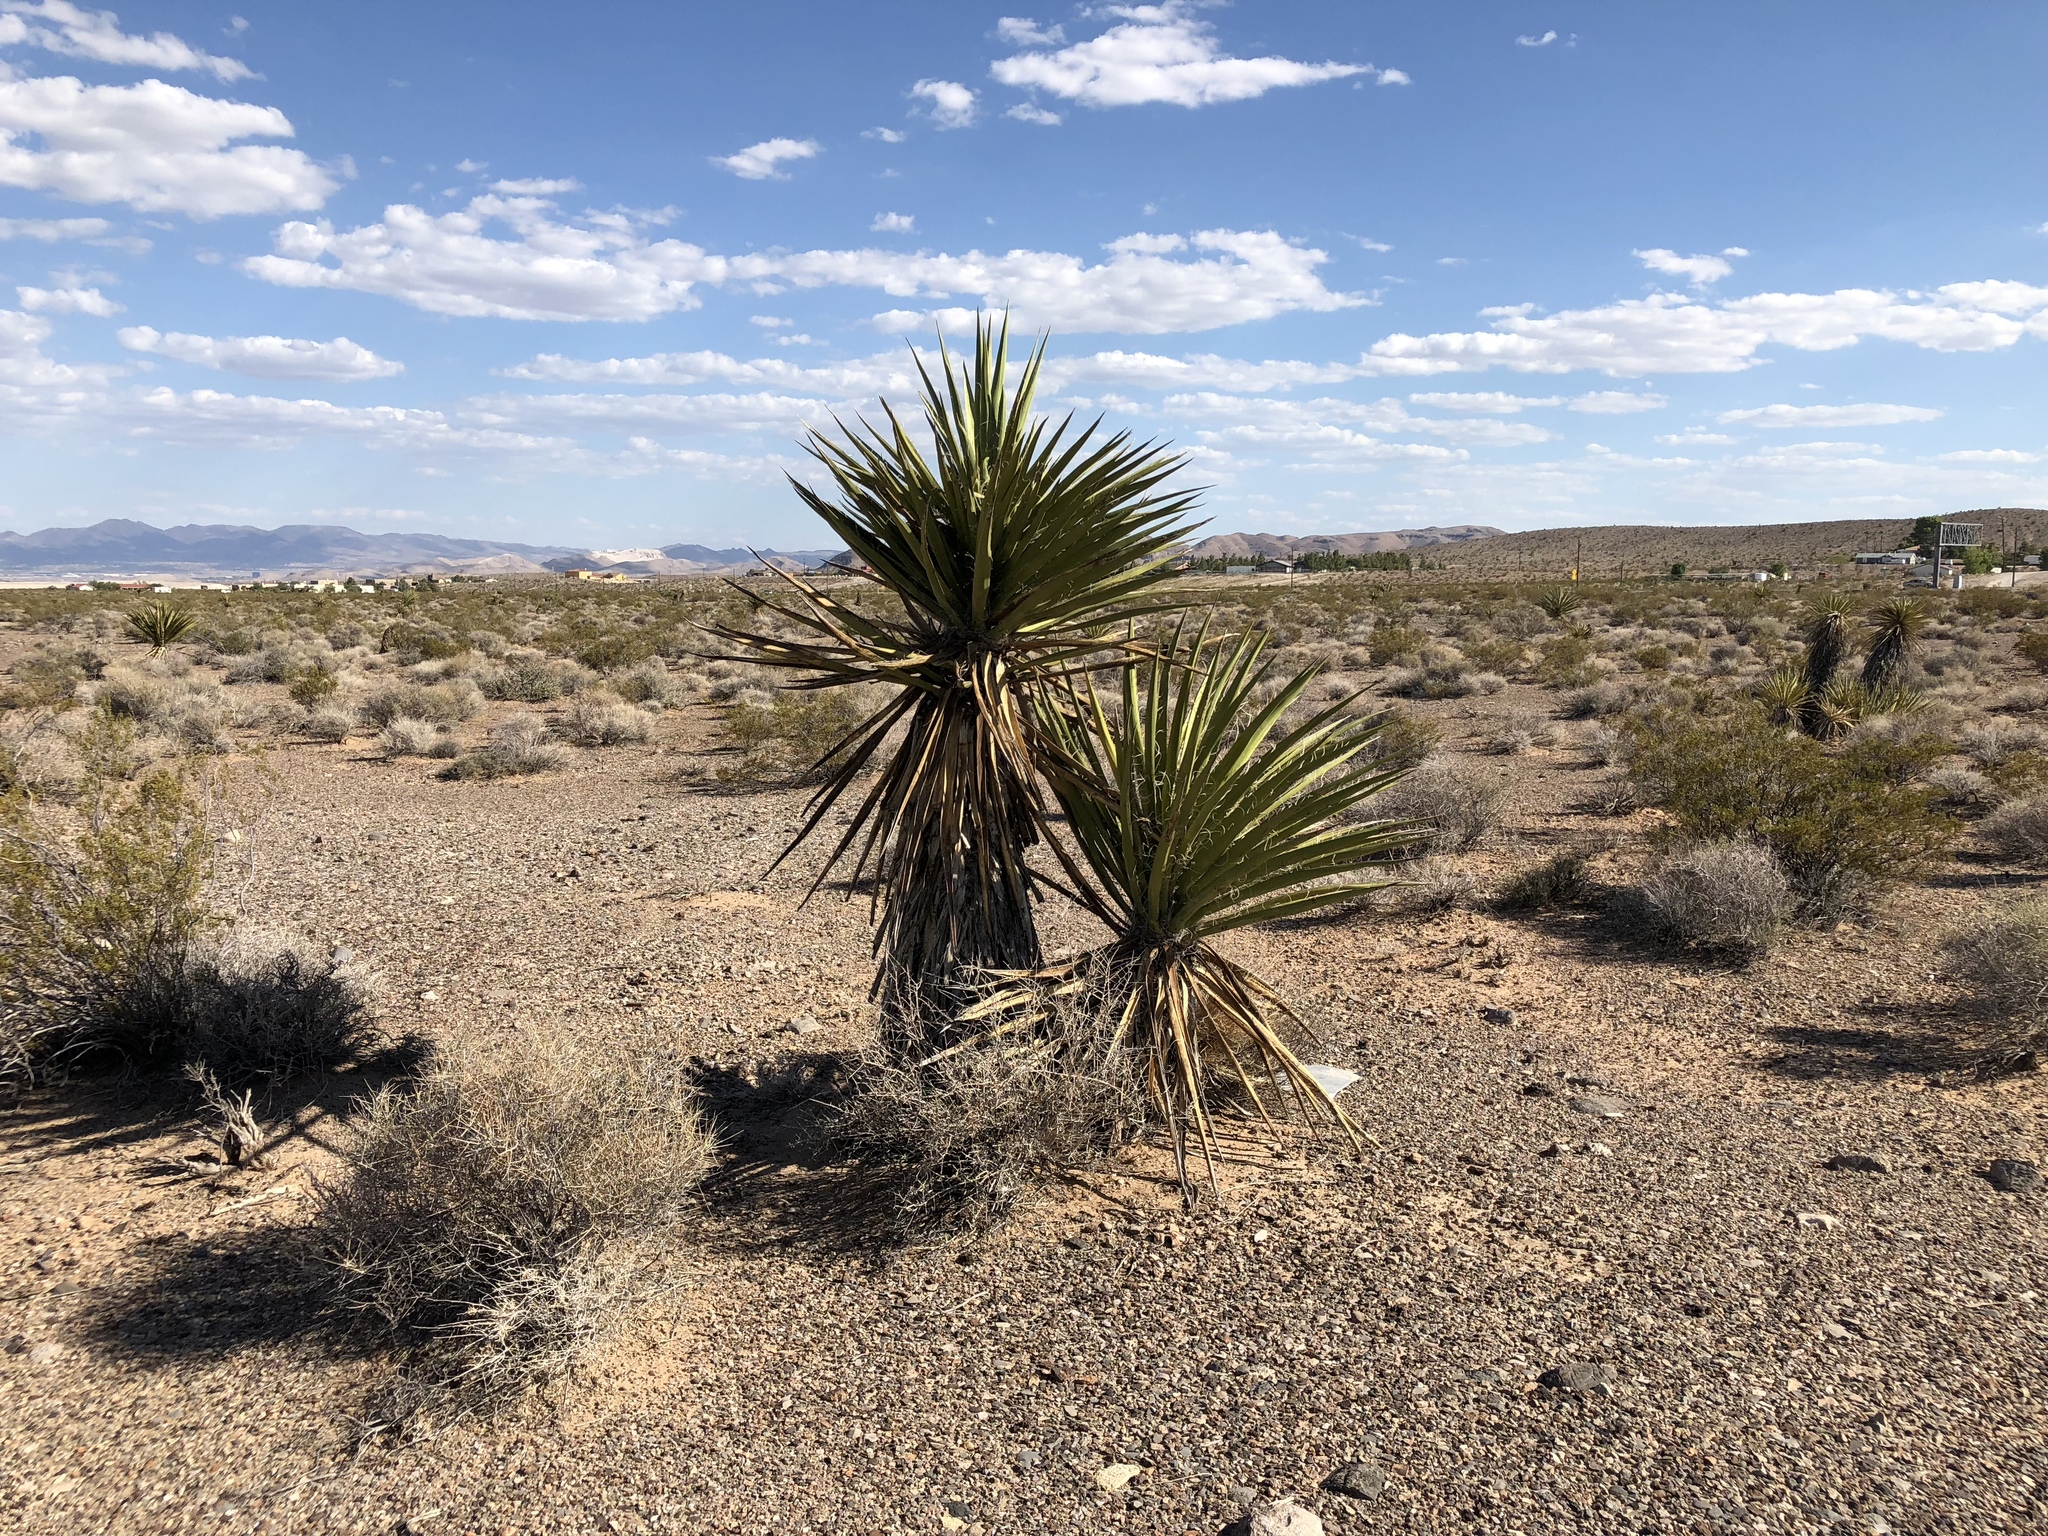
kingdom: Plantae
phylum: Tracheophyta
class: Liliopsida
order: Asparagales
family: Asparagaceae
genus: Yucca
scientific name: Yucca schidigera
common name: Mojave yucca
